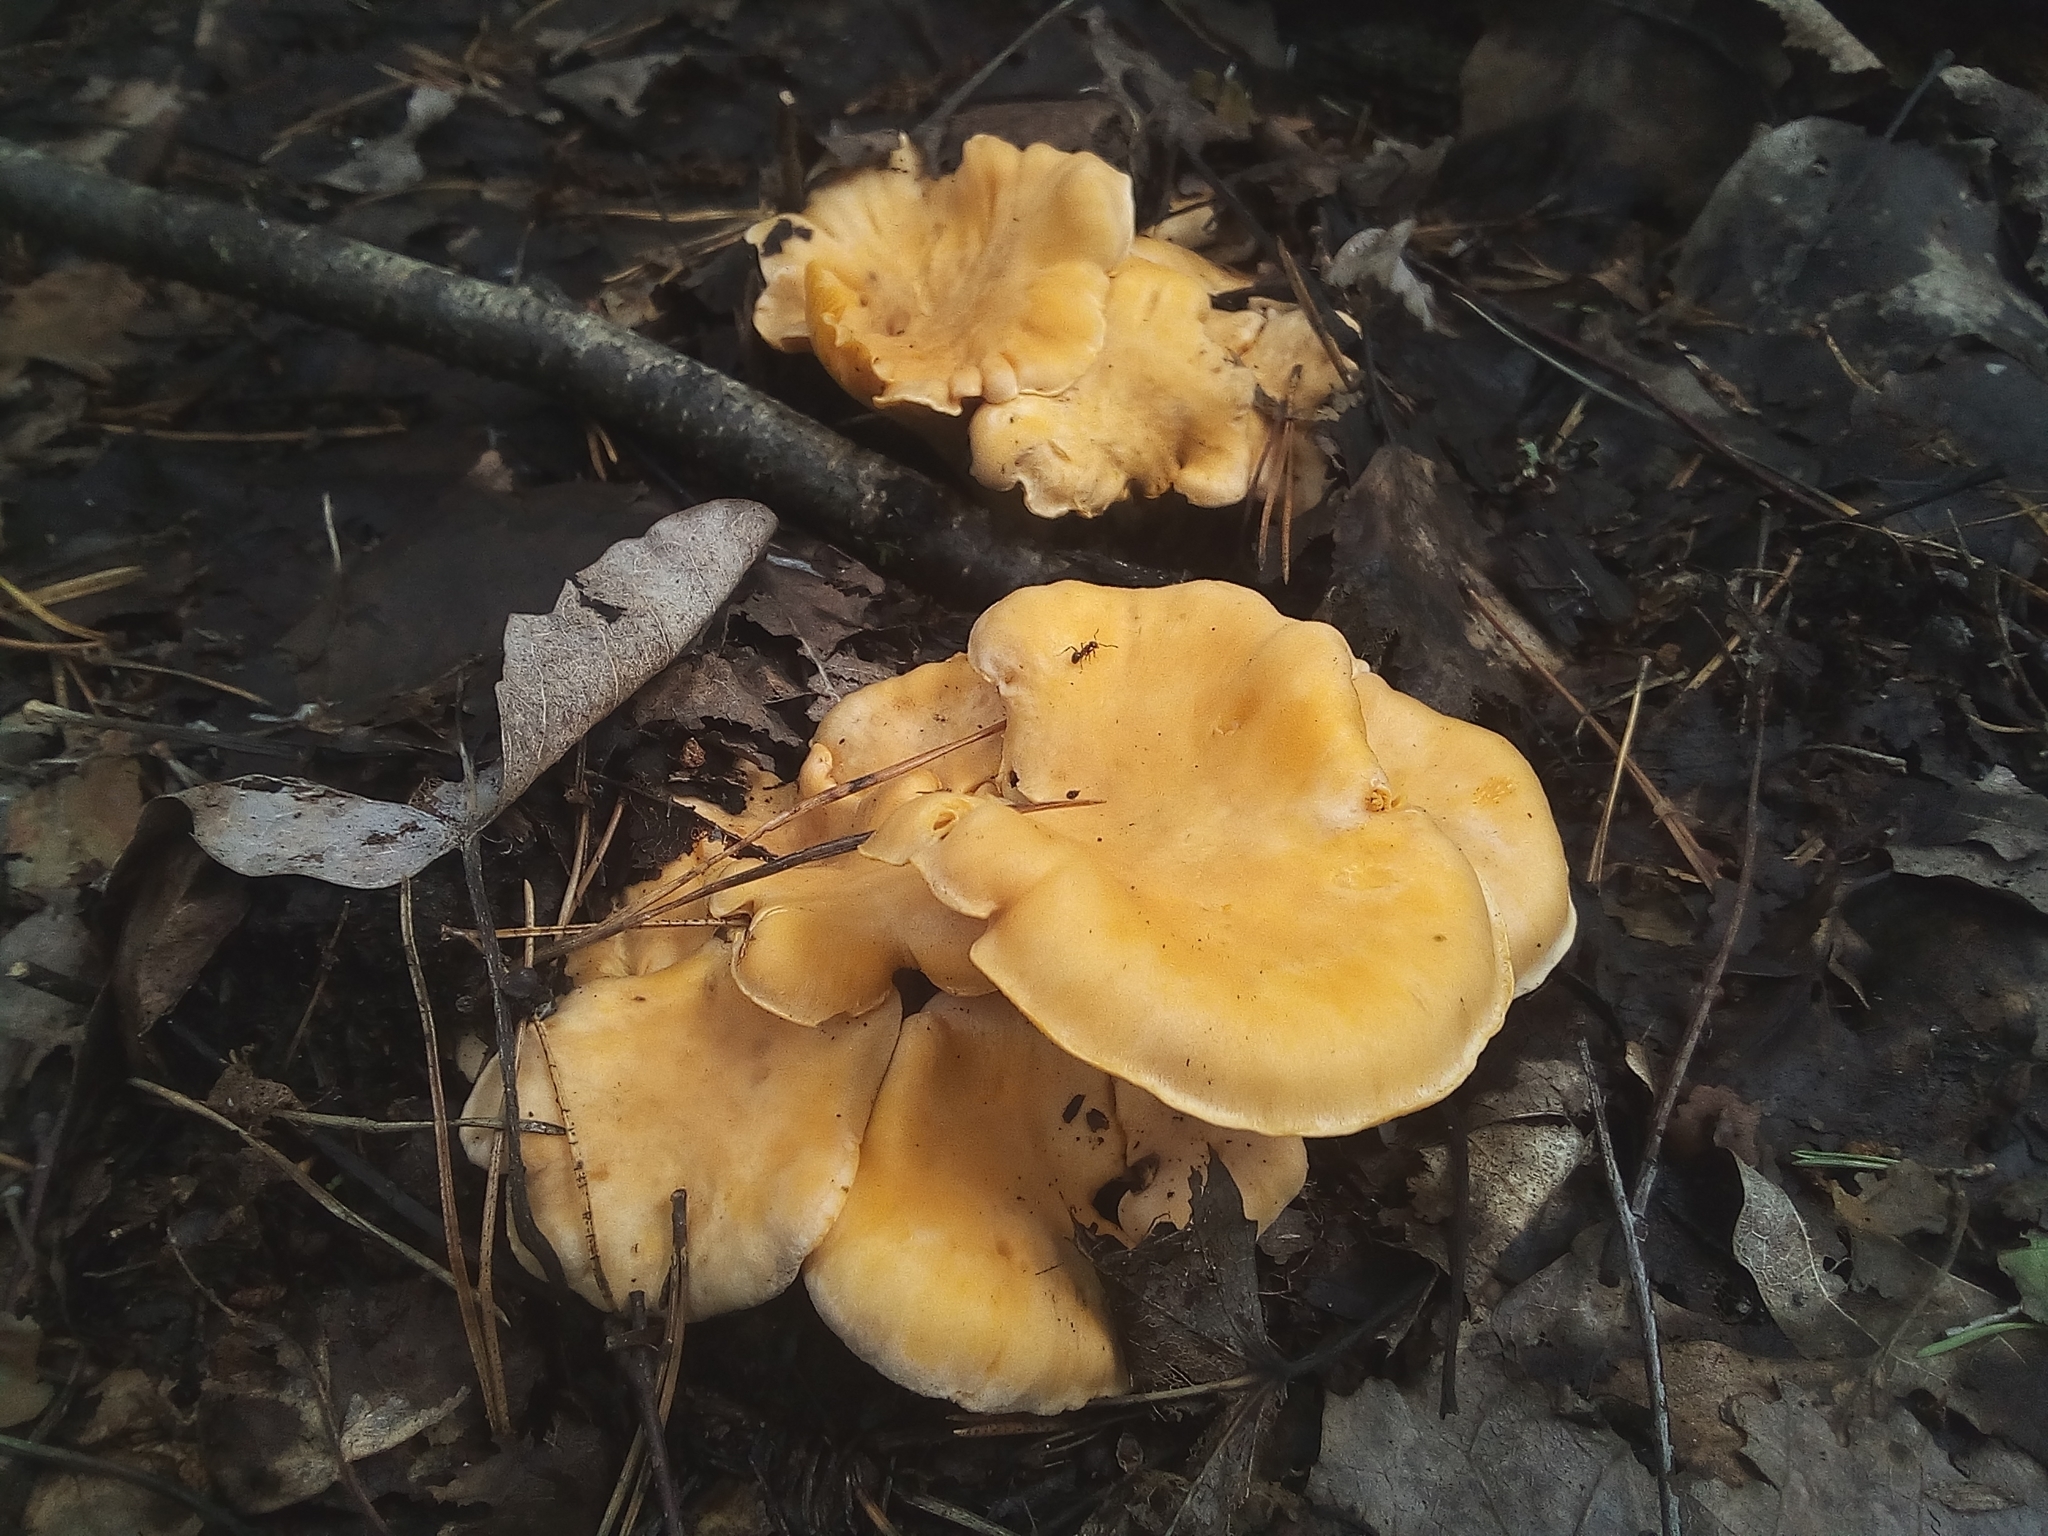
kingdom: Fungi
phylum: Basidiomycota
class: Agaricomycetes
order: Cantharellales
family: Hydnaceae
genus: Cantharellus
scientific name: Cantharellus pallens
